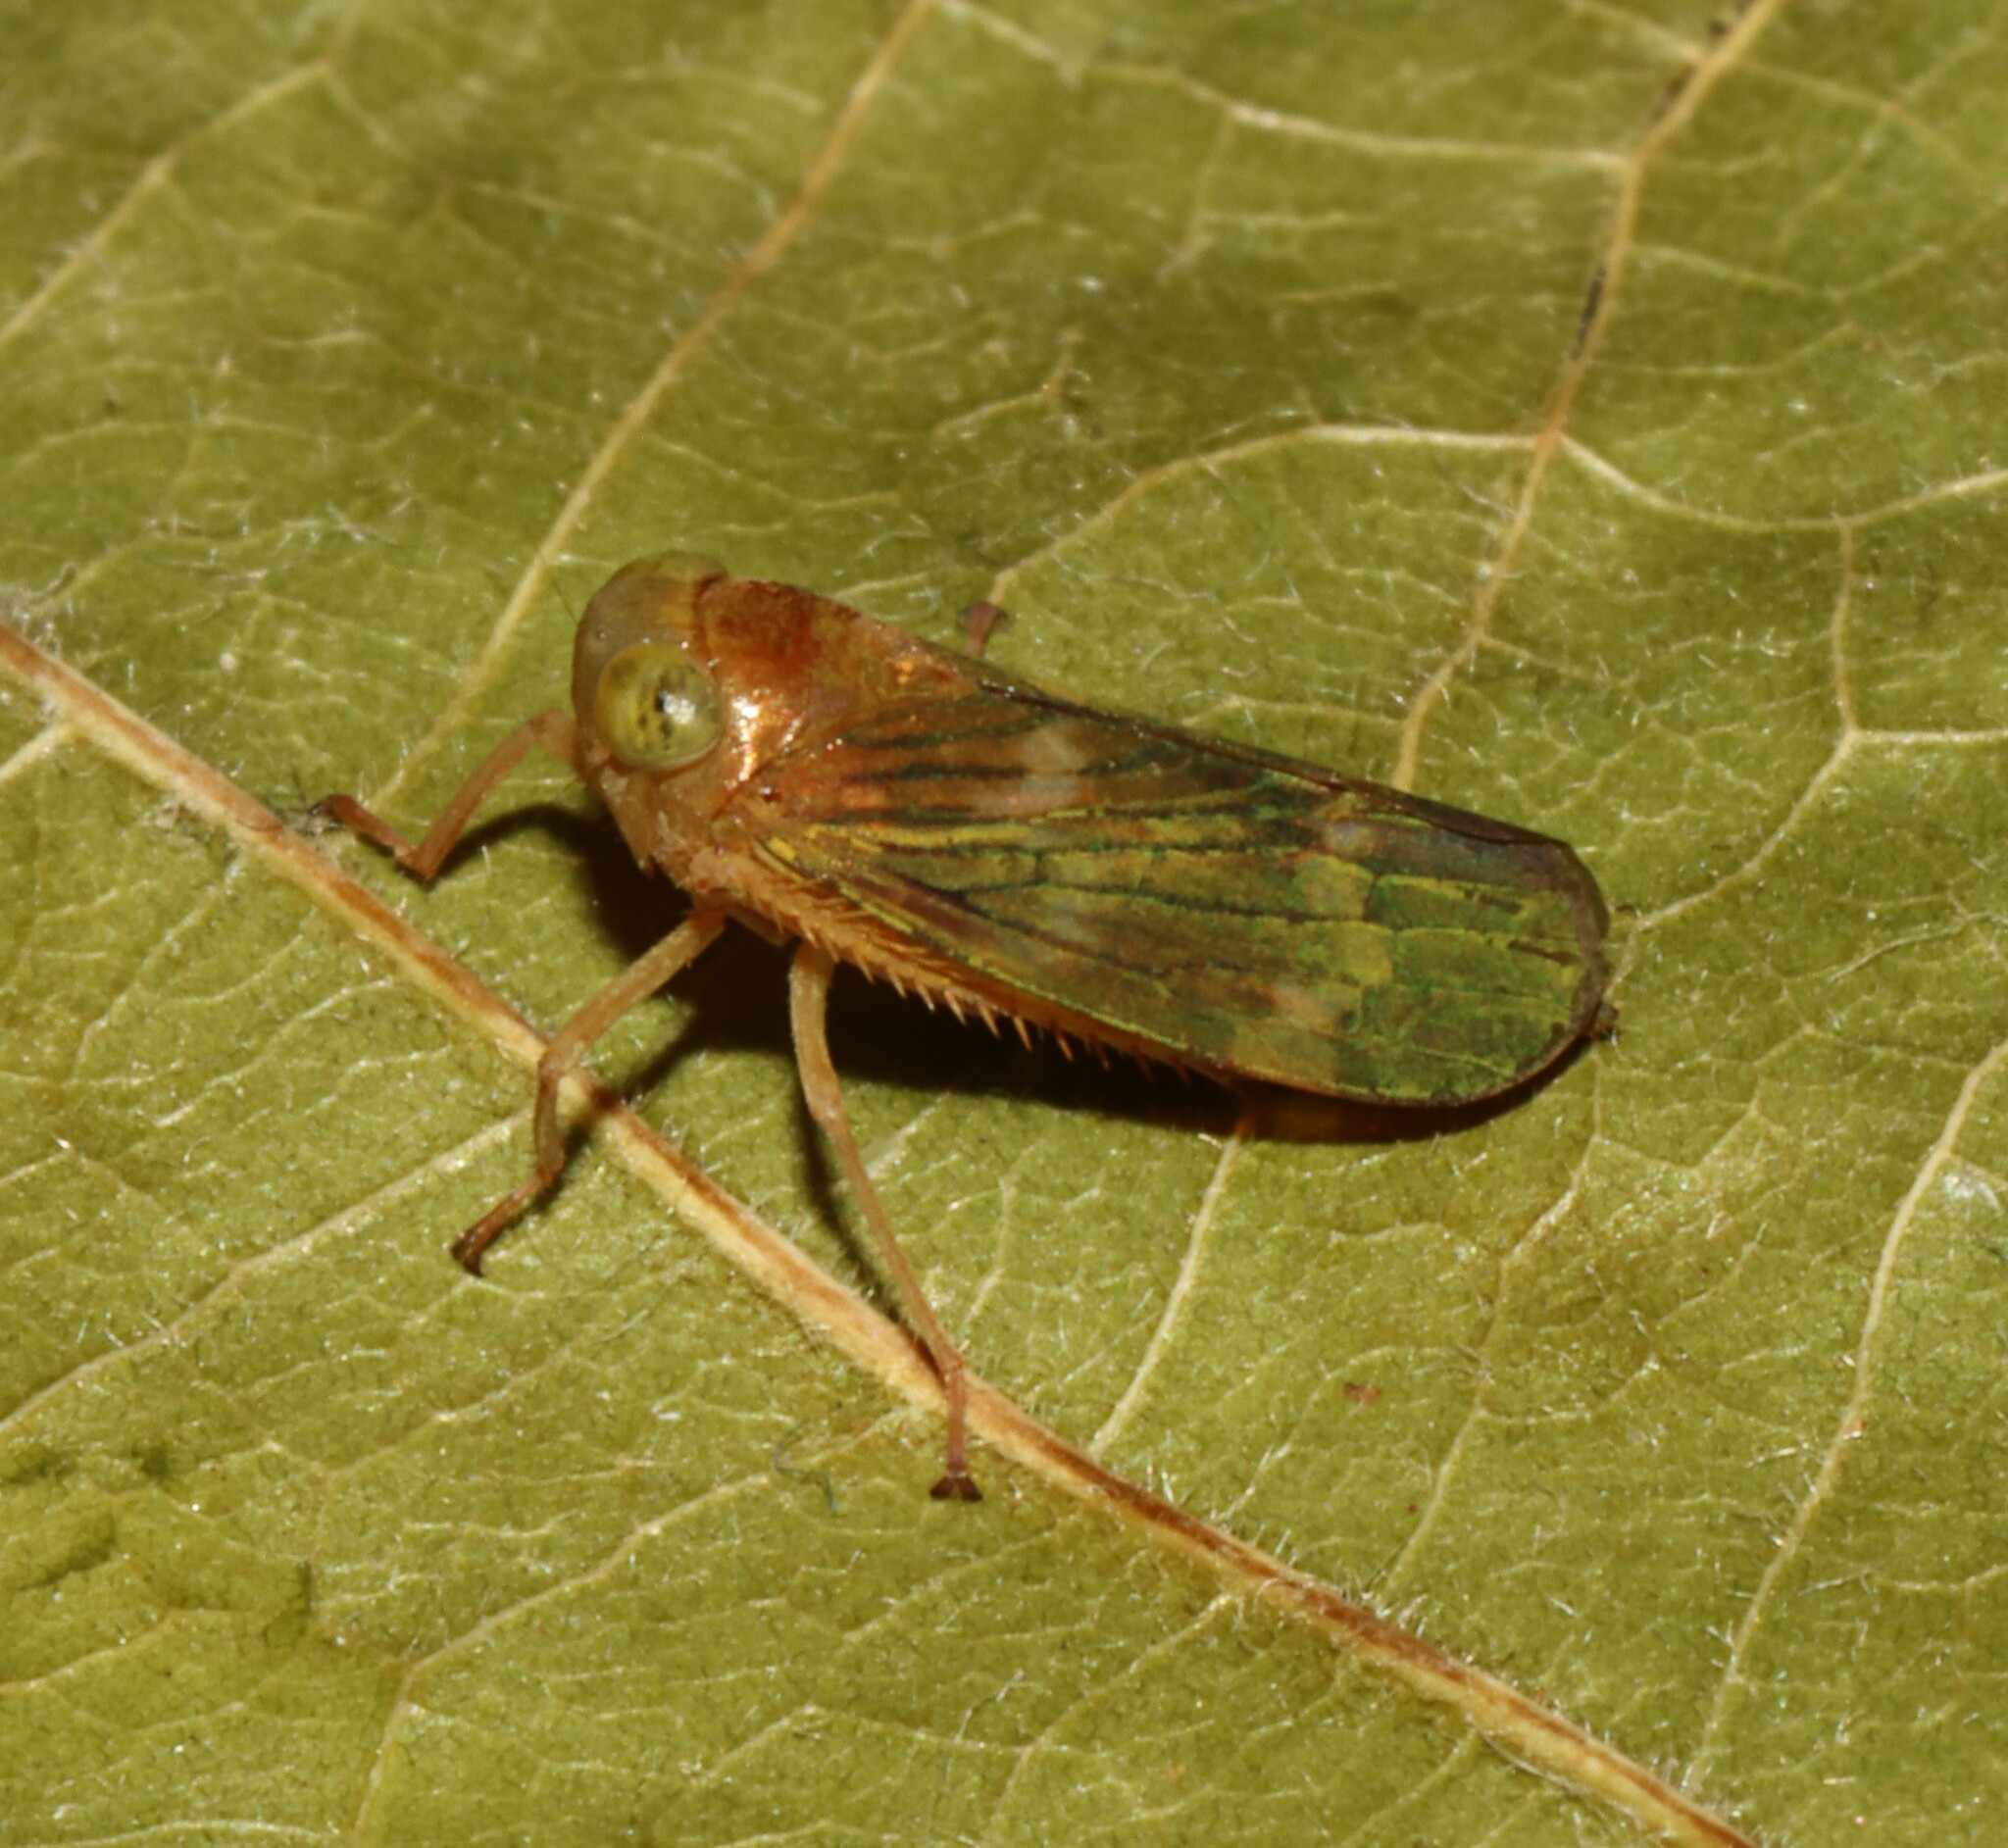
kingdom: Animalia
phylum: Arthropoda
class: Insecta
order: Hemiptera
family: Cicadellidae
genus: Jikradia
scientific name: Jikradia olitoria
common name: Coppery leafhopper
